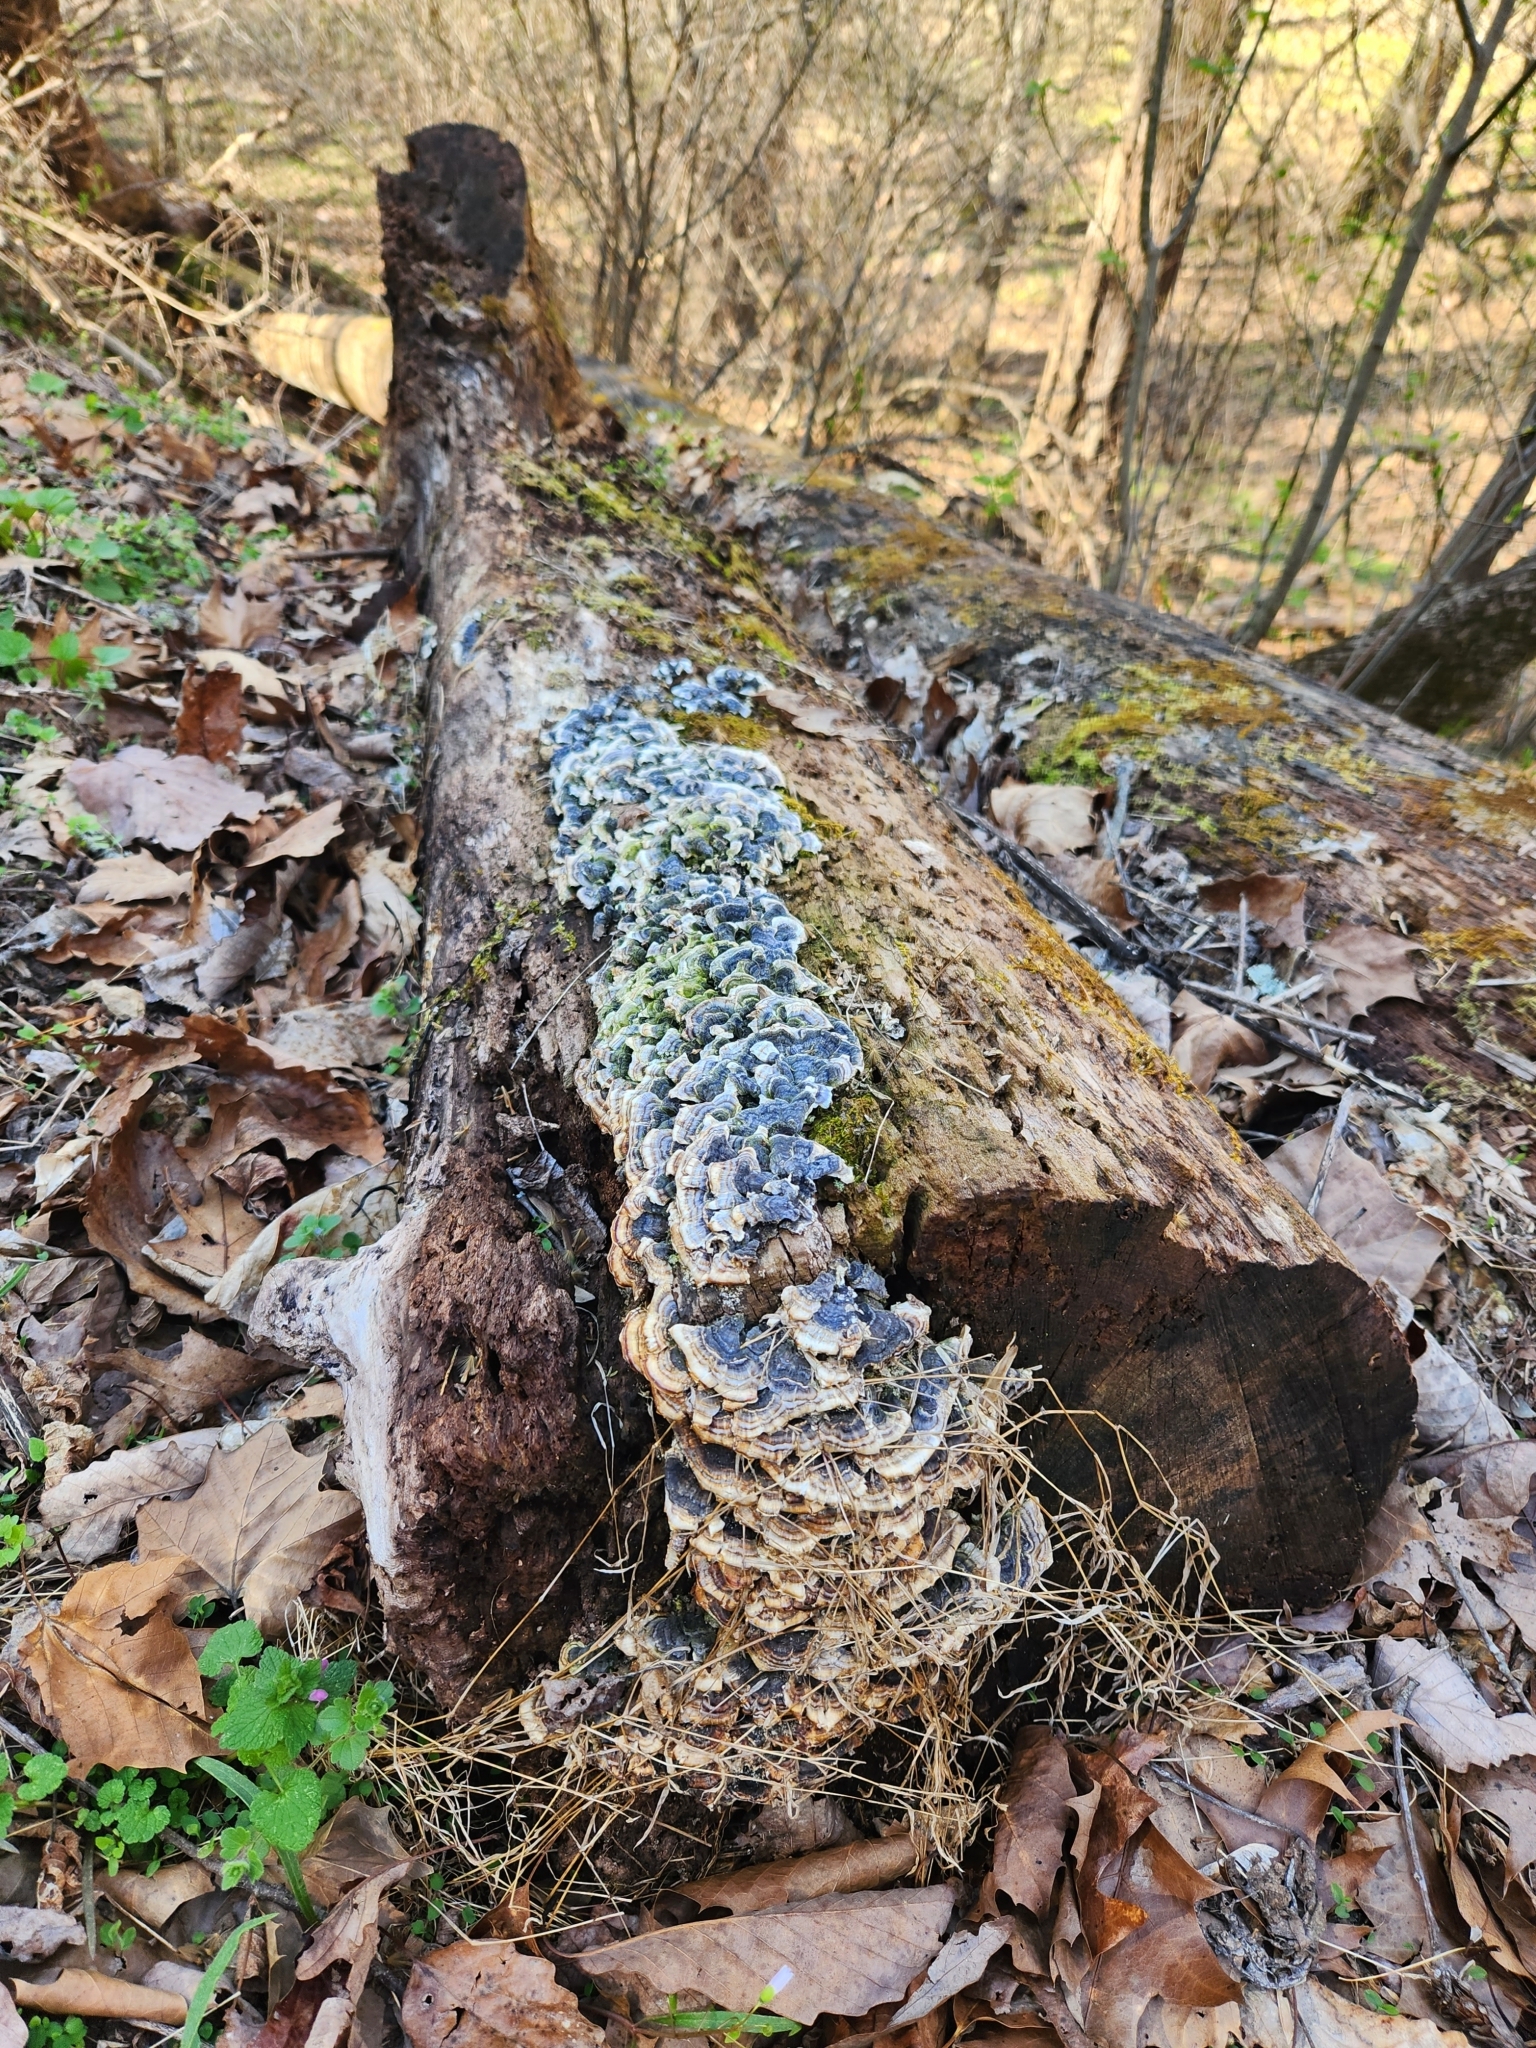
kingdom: Fungi
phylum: Basidiomycota
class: Agaricomycetes
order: Polyporales
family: Polyporaceae
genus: Trametes
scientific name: Trametes versicolor
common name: Turkeytail
